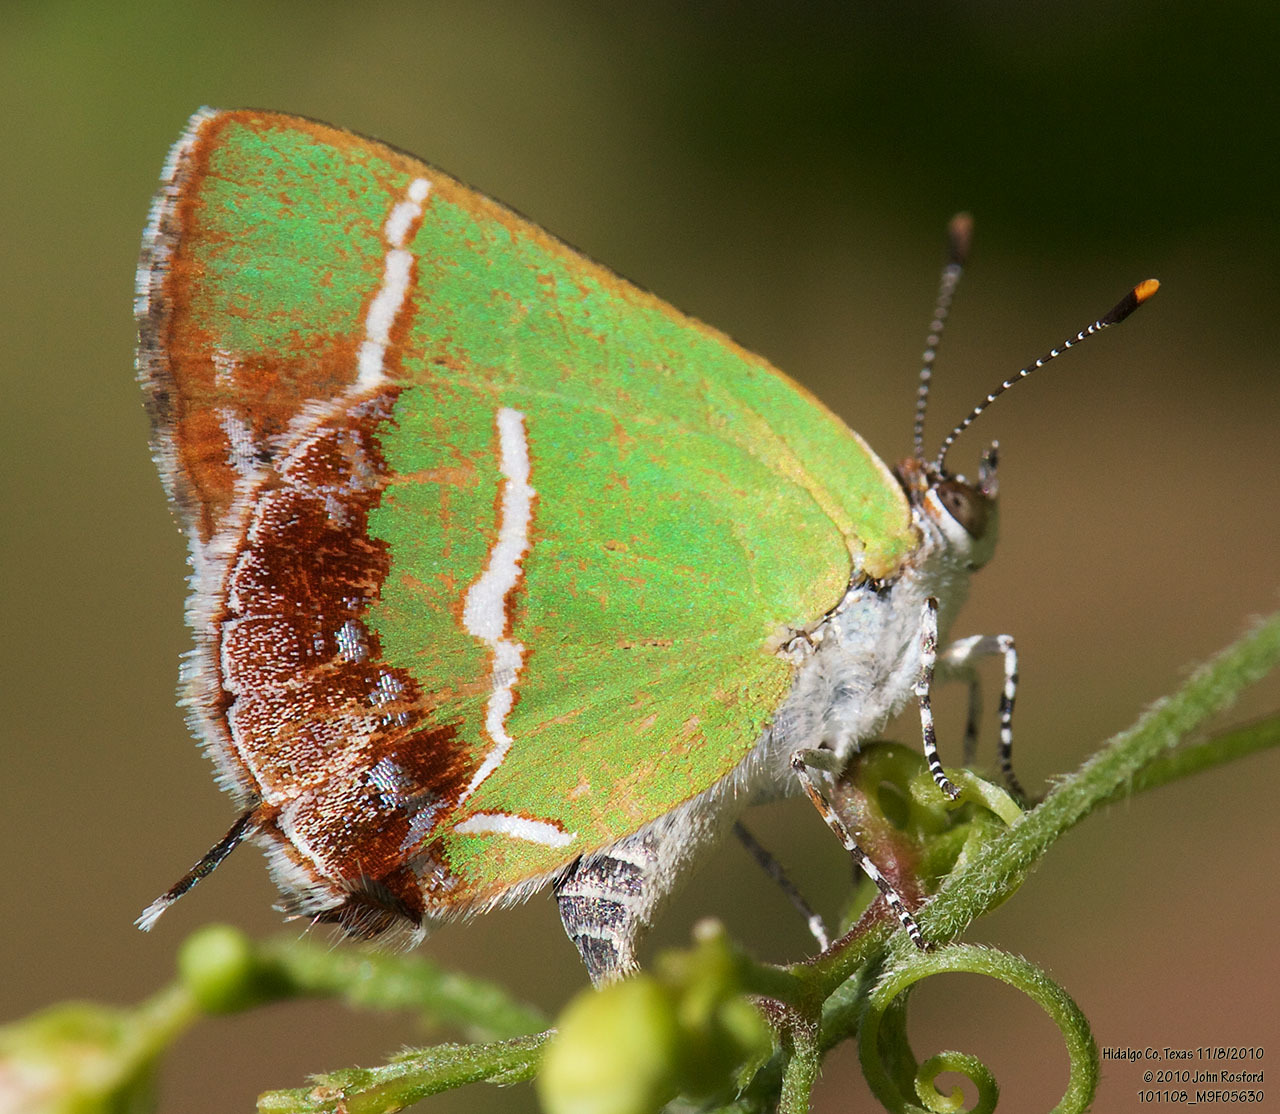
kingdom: Animalia
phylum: Arthropoda
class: Insecta
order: Lepidoptera
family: Lycaenidae
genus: Chlorostrymon
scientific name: Chlorostrymon simaethis
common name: Silver-banded hairstreak
